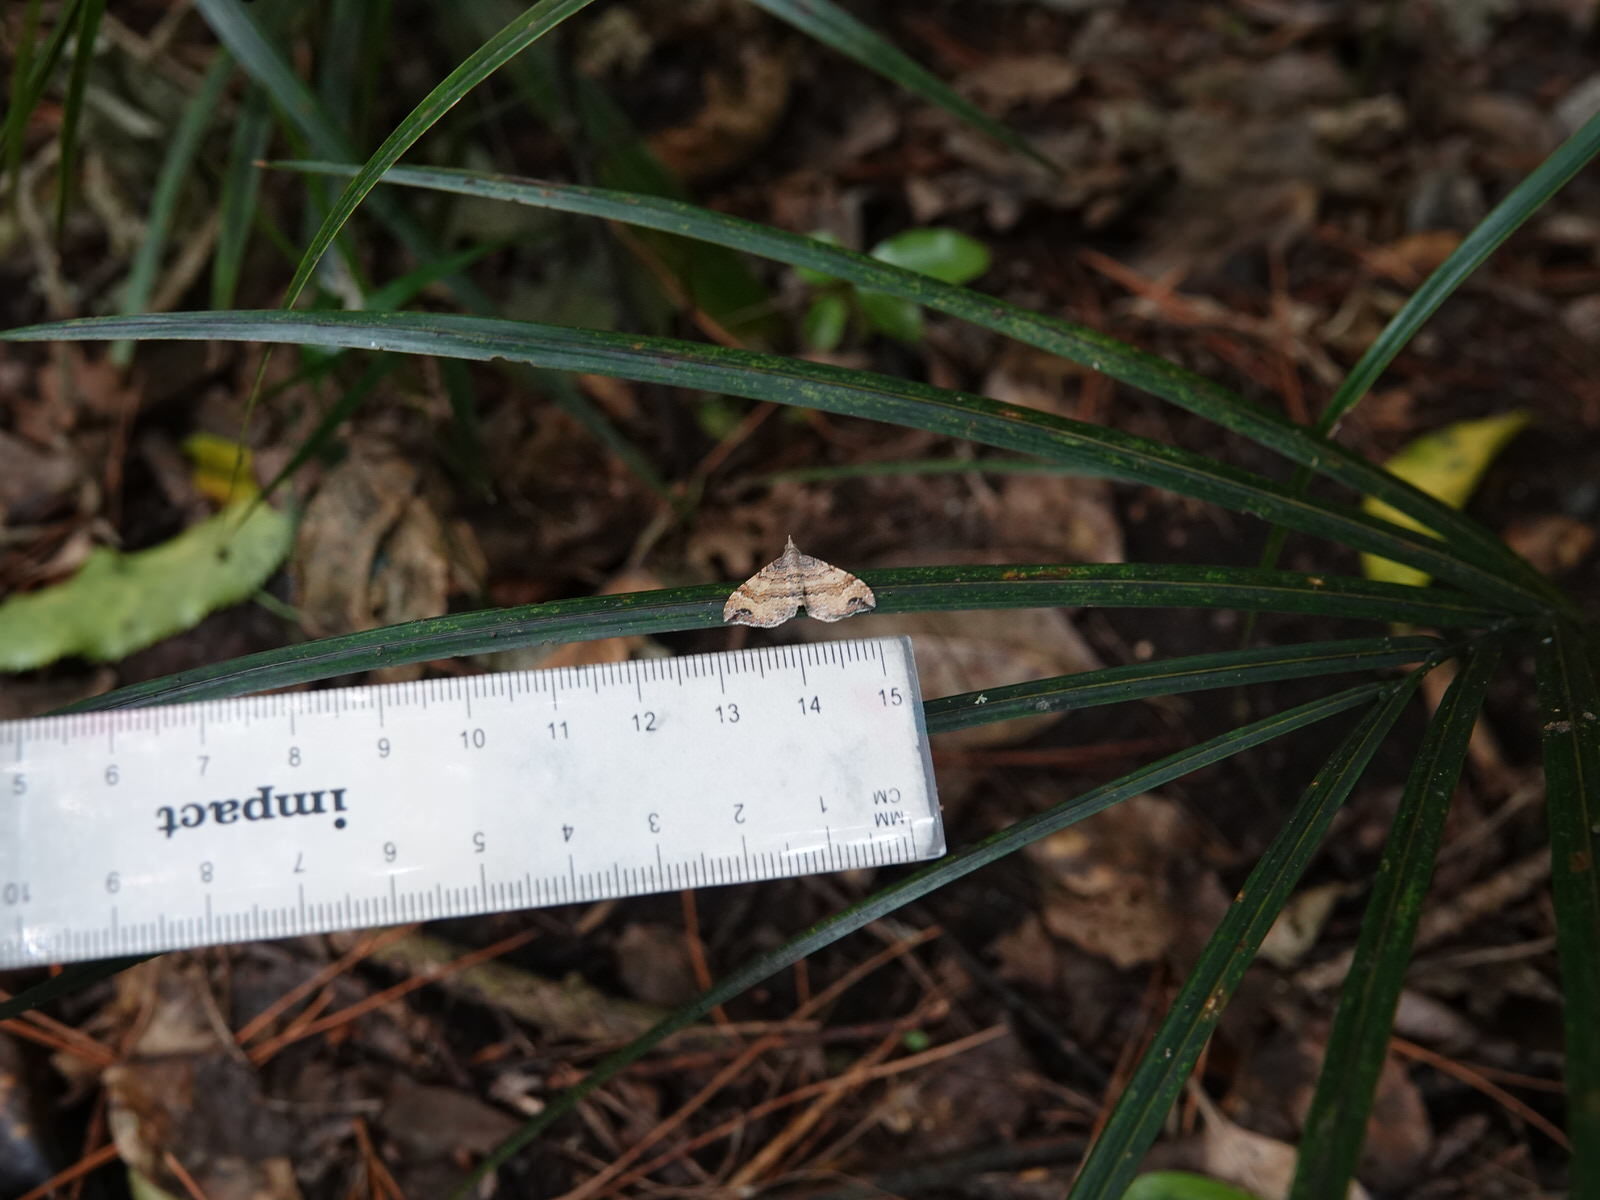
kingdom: Animalia
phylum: Arthropoda
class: Insecta
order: Lepidoptera
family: Geometridae
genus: Homodotis
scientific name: Homodotis megaspilata
